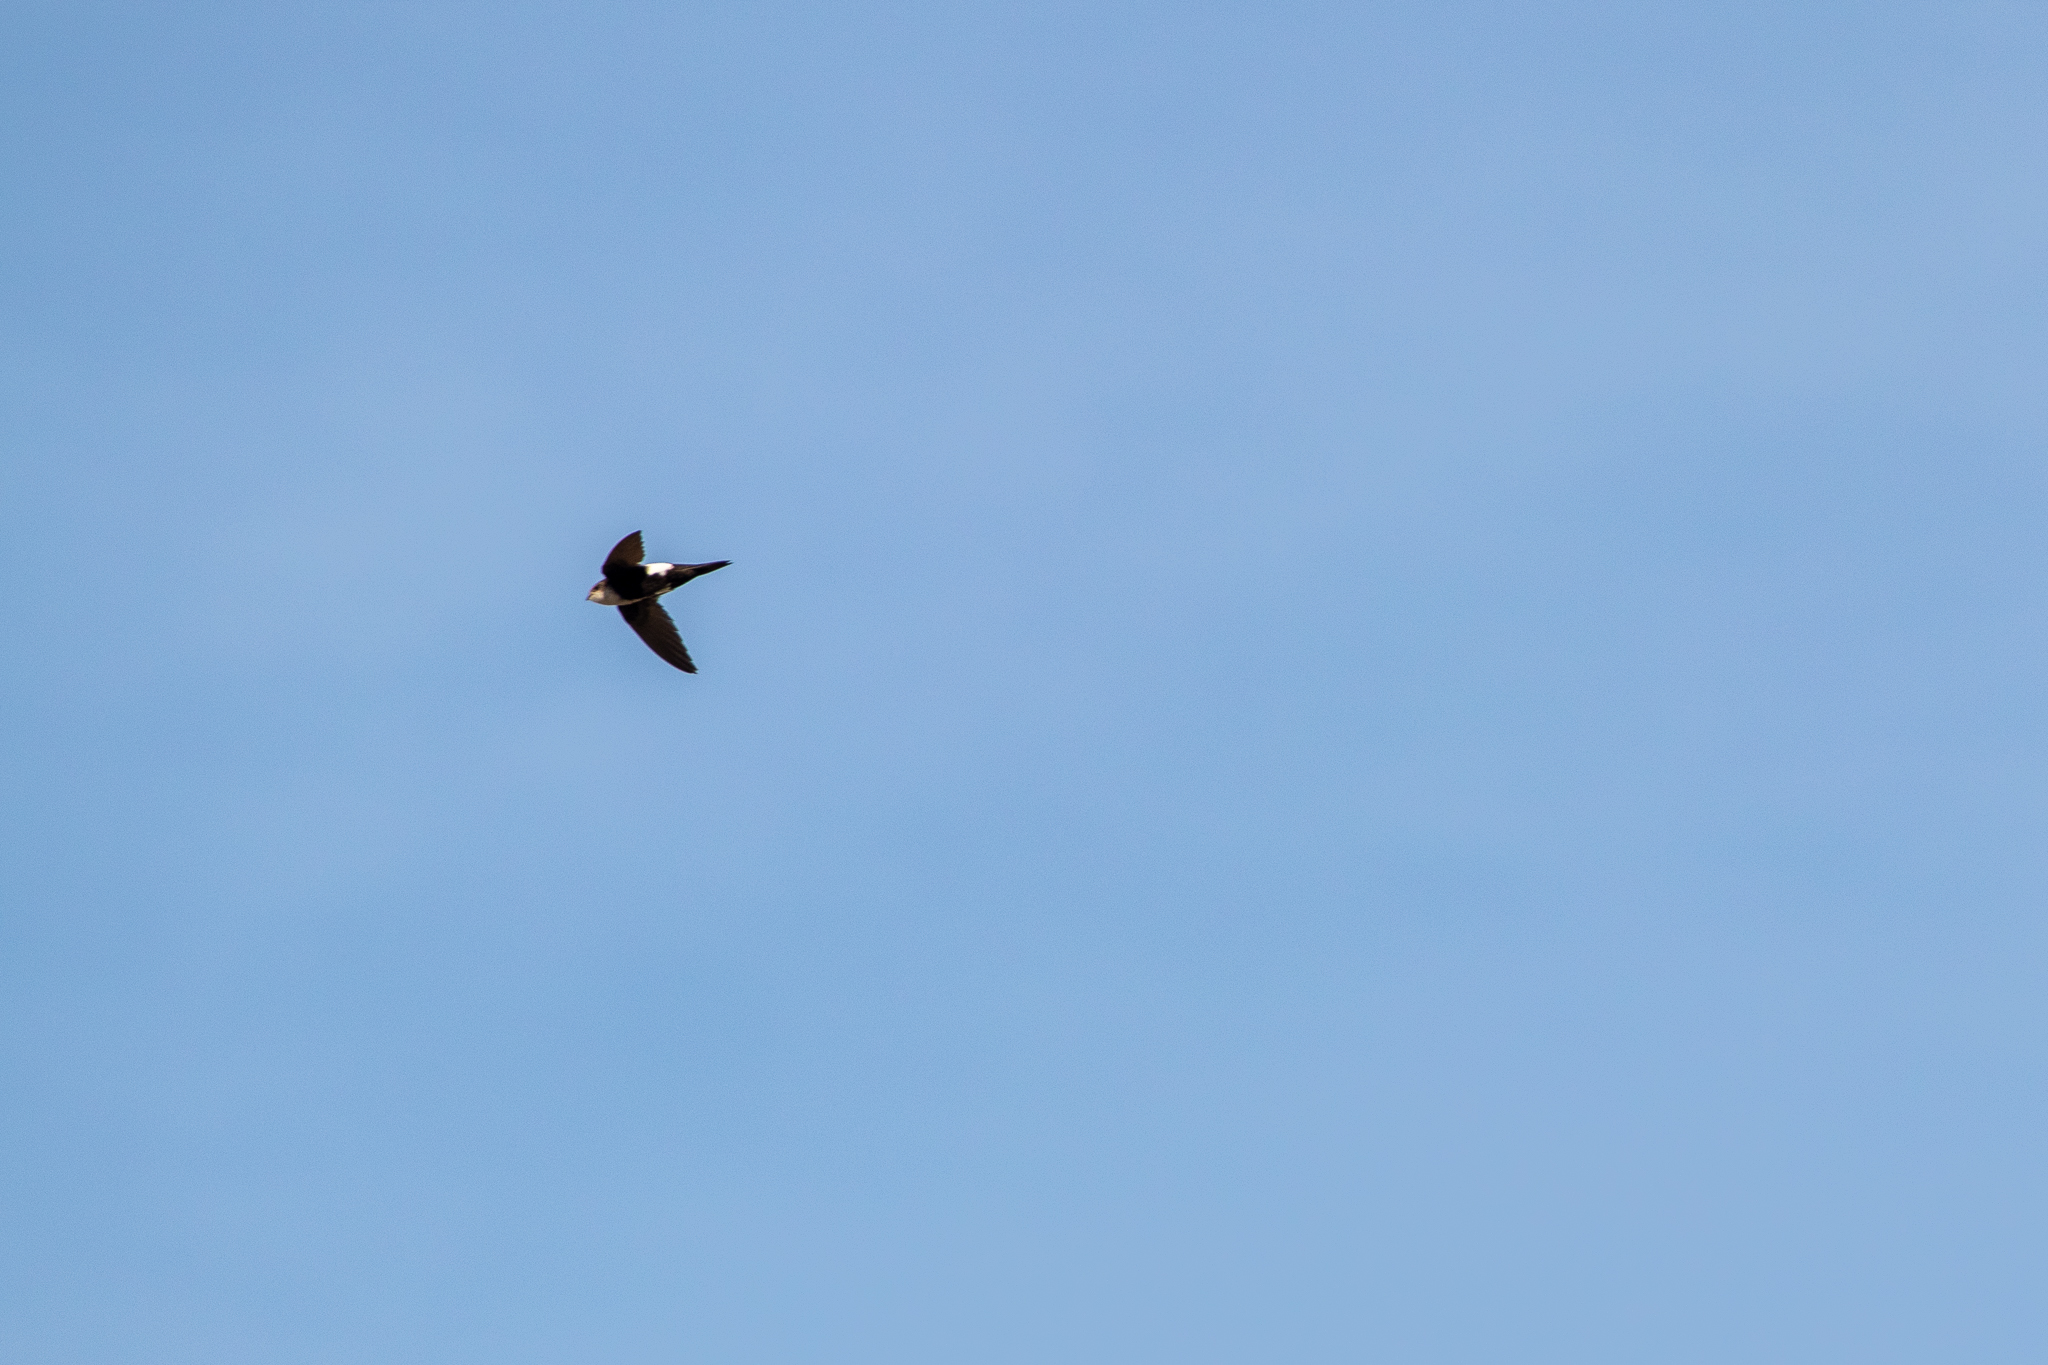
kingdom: Animalia
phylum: Chordata
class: Aves
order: Apodiformes
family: Apodidae
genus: Aeronautes
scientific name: Aeronautes saxatalis
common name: White-throated swift
